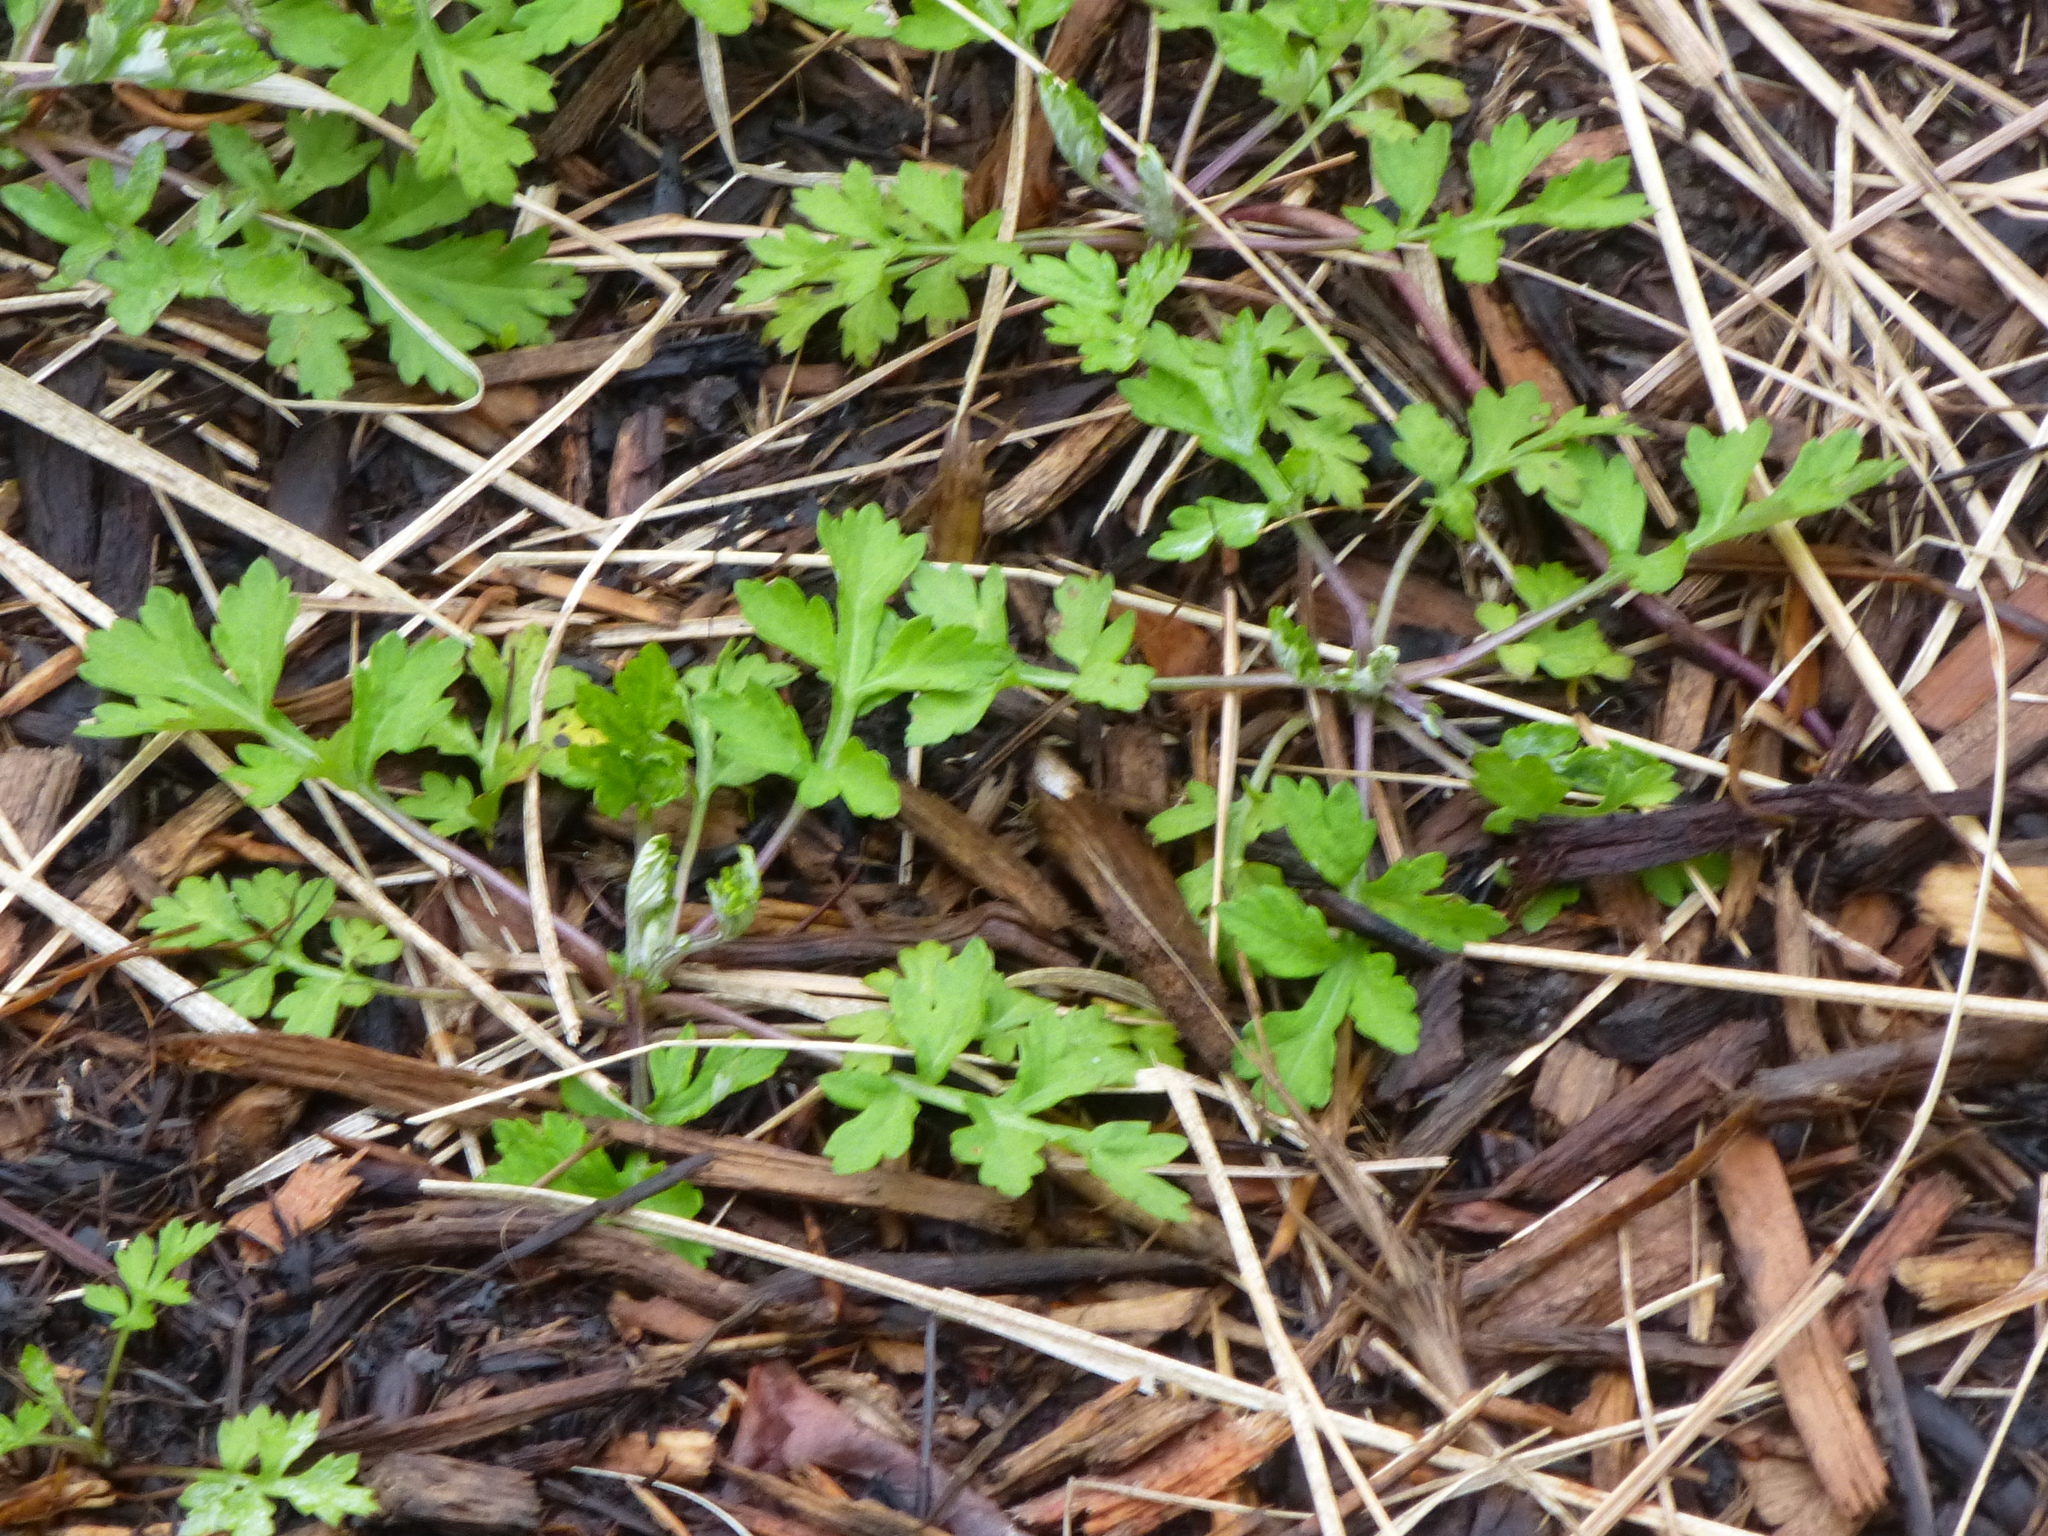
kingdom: Plantae
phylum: Tracheophyta
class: Magnoliopsida
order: Asterales
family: Asteraceae
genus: Artemisia
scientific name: Artemisia vulgaris
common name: Mugwort
